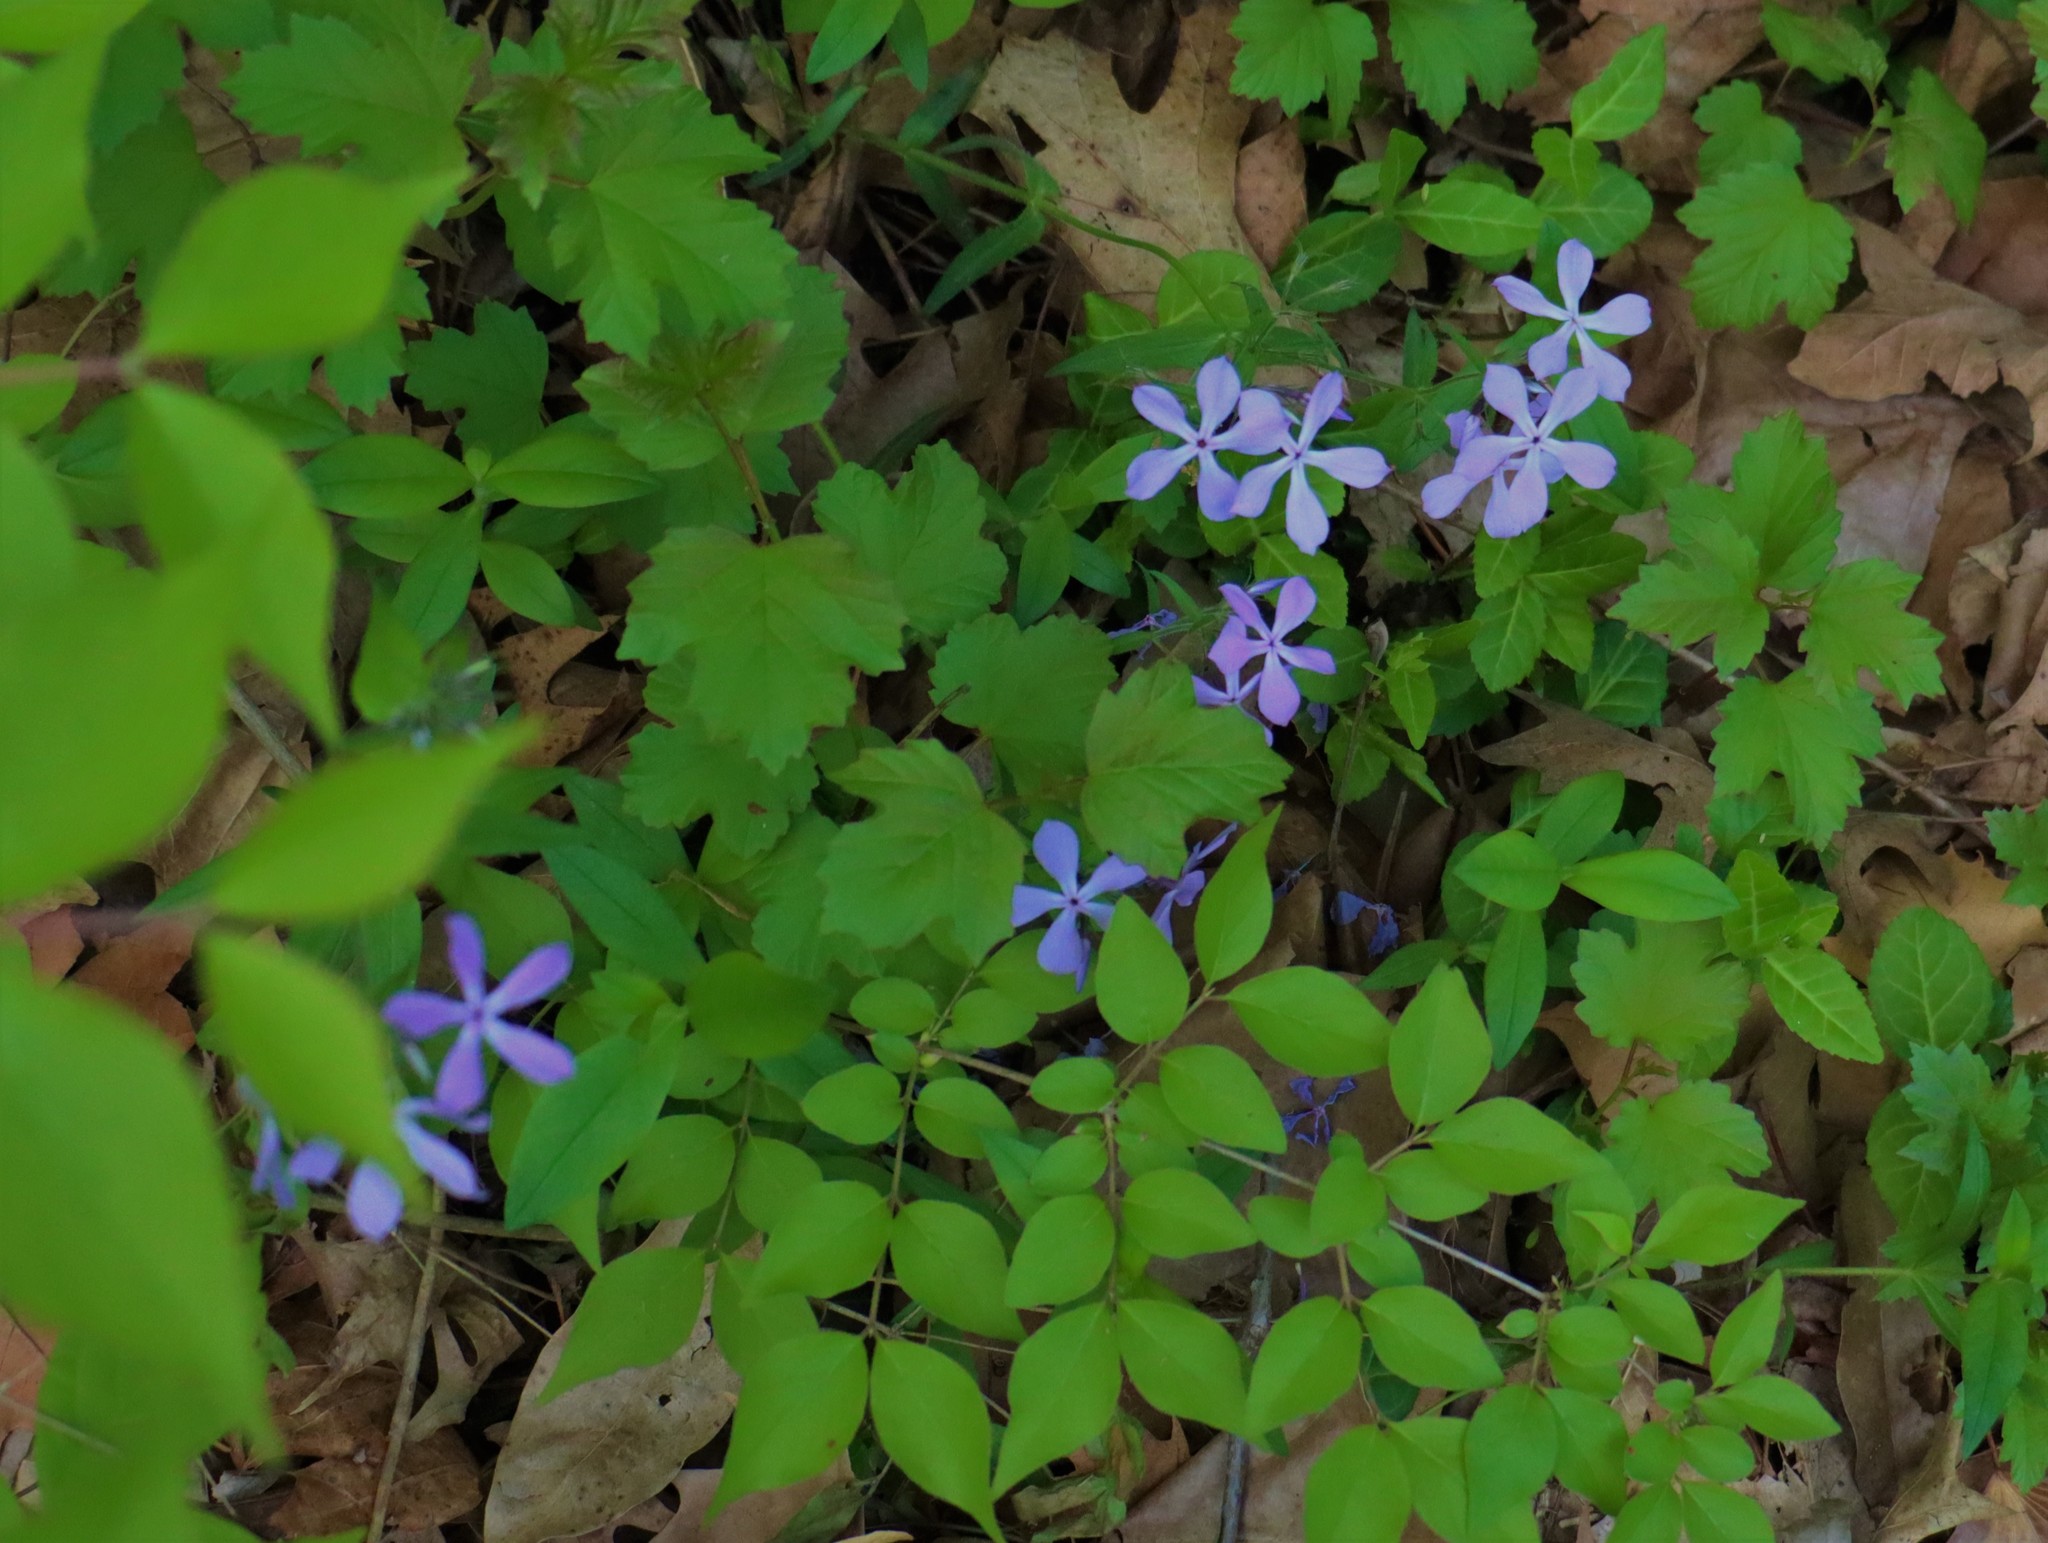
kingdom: Plantae
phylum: Tracheophyta
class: Magnoliopsida
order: Ericales
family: Polemoniaceae
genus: Phlox
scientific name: Phlox divaricata
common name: Blue phlox
